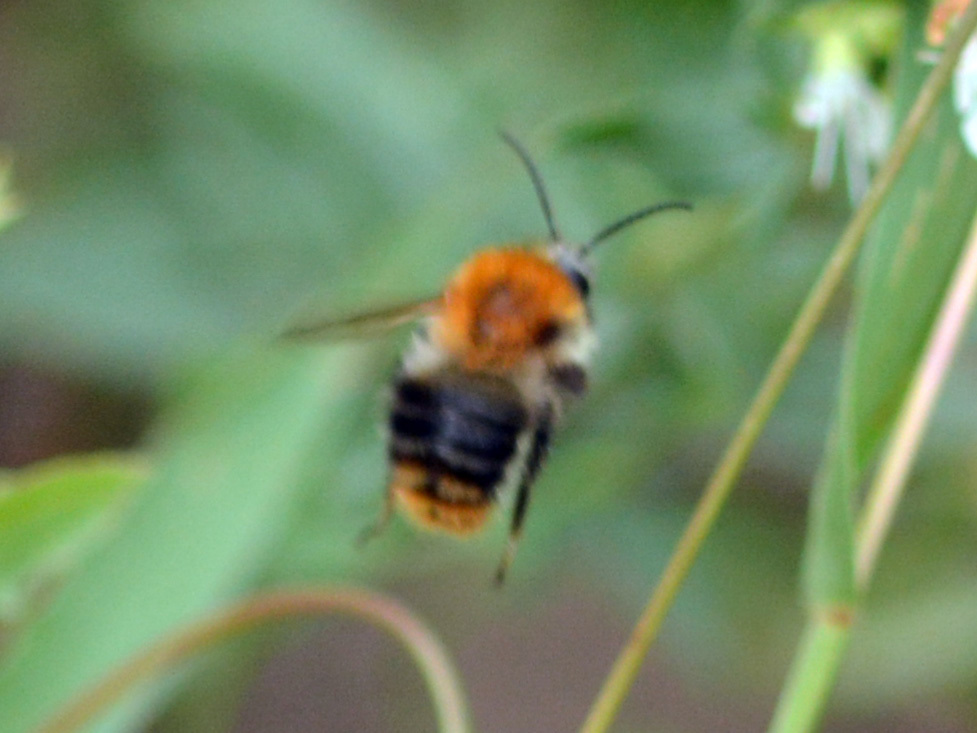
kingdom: Animalia
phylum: Arthropoda
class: Insecta
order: Hymenoptera
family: Apidae
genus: Bombus
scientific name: Bombus pascuorum
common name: Common carder bee
